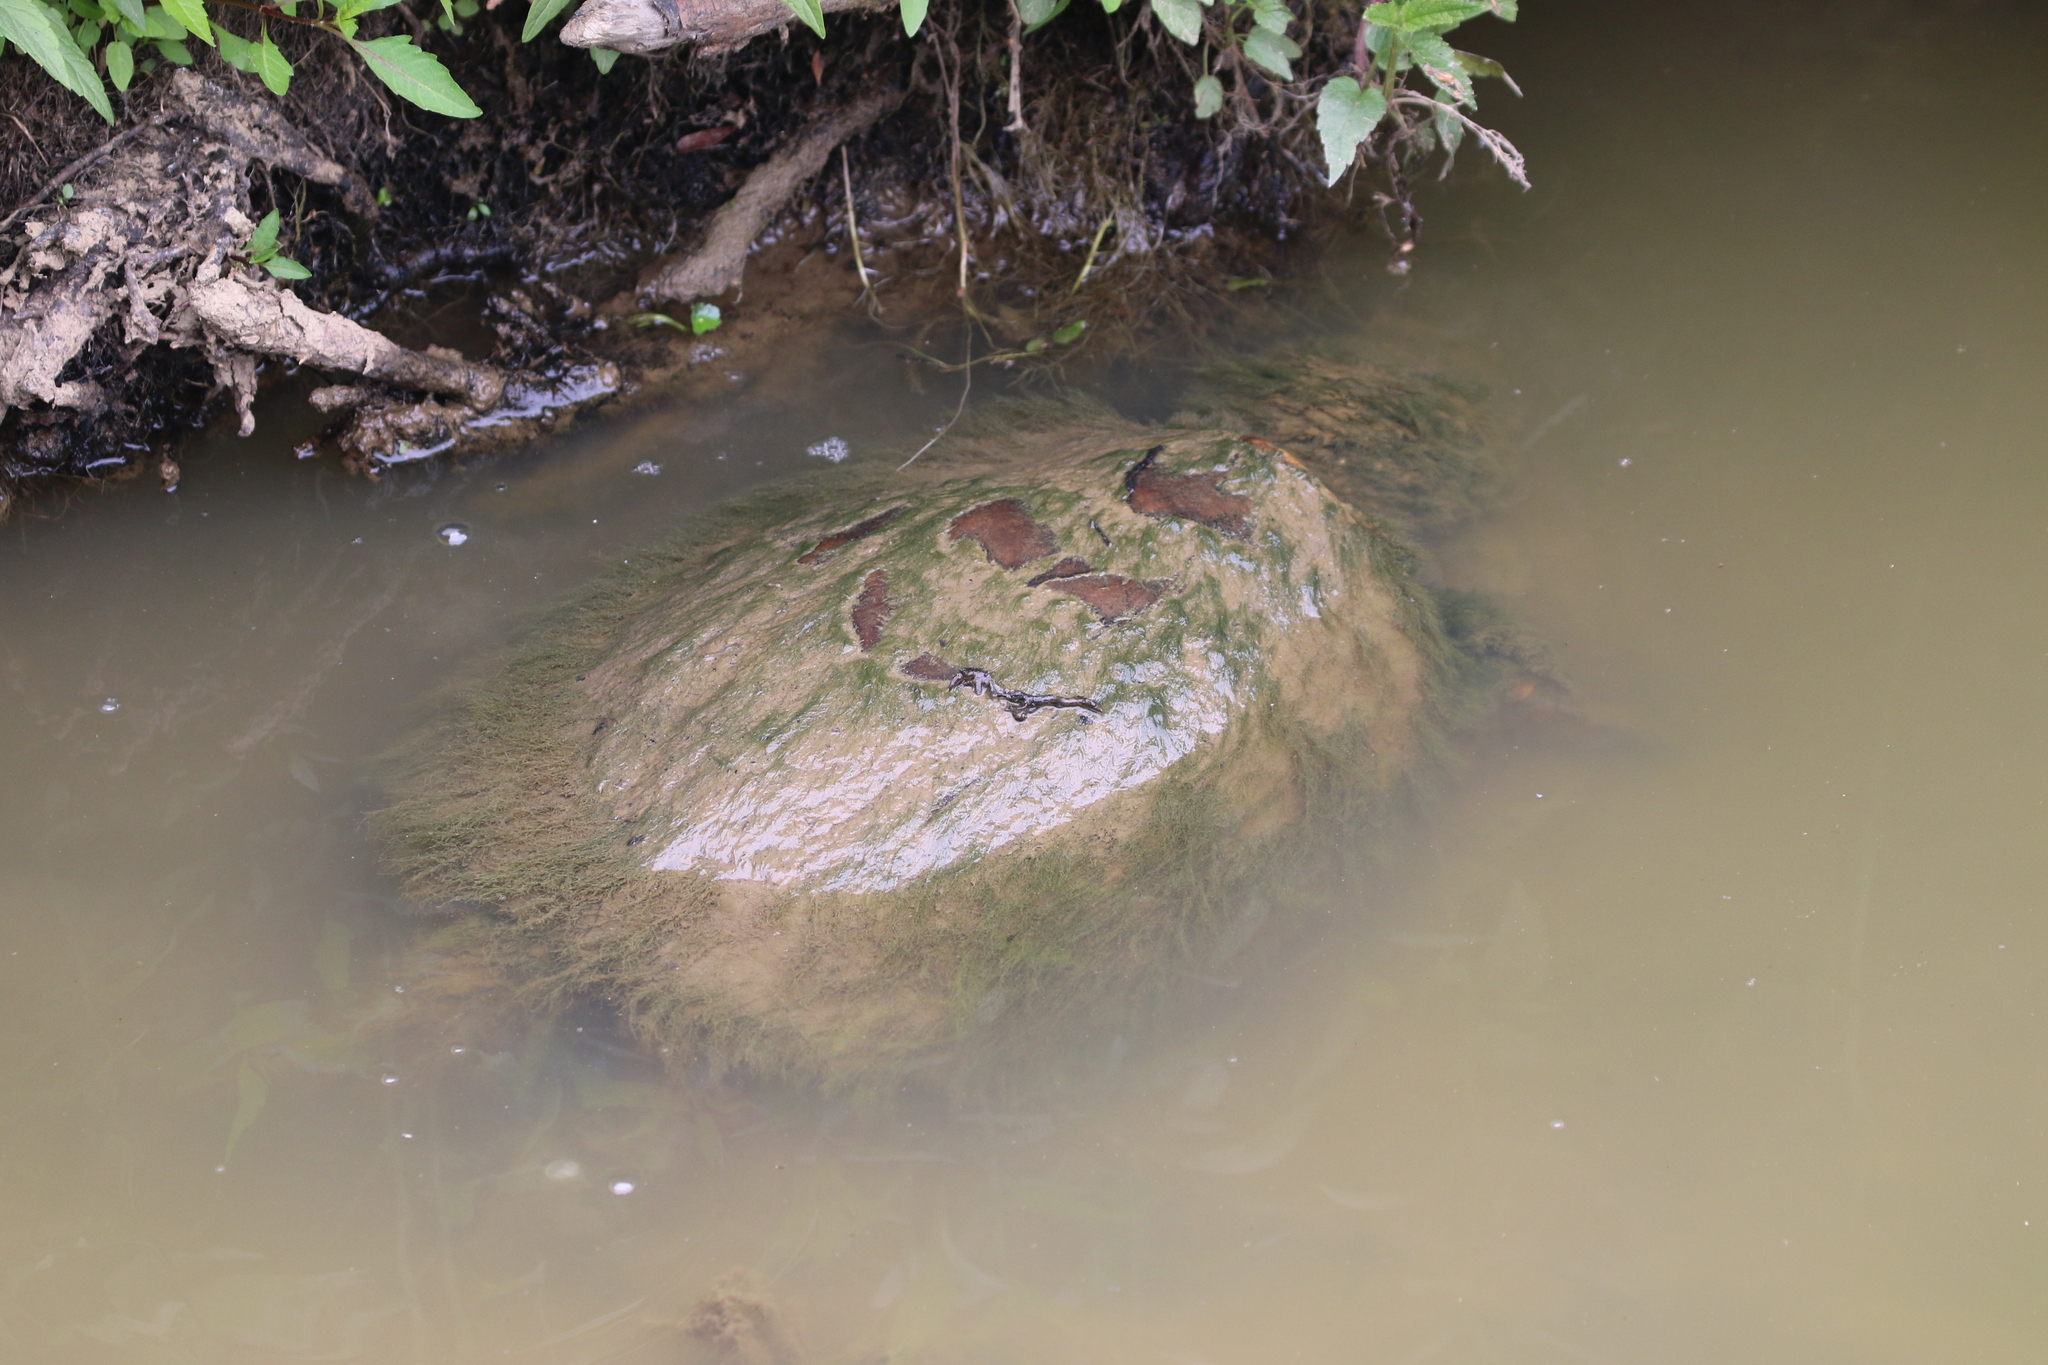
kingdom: Animalia
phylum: Chordata
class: Testudines
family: Chelydridae
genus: Chelydra
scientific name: Chelydra serpentina
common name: Common snapping turtle
